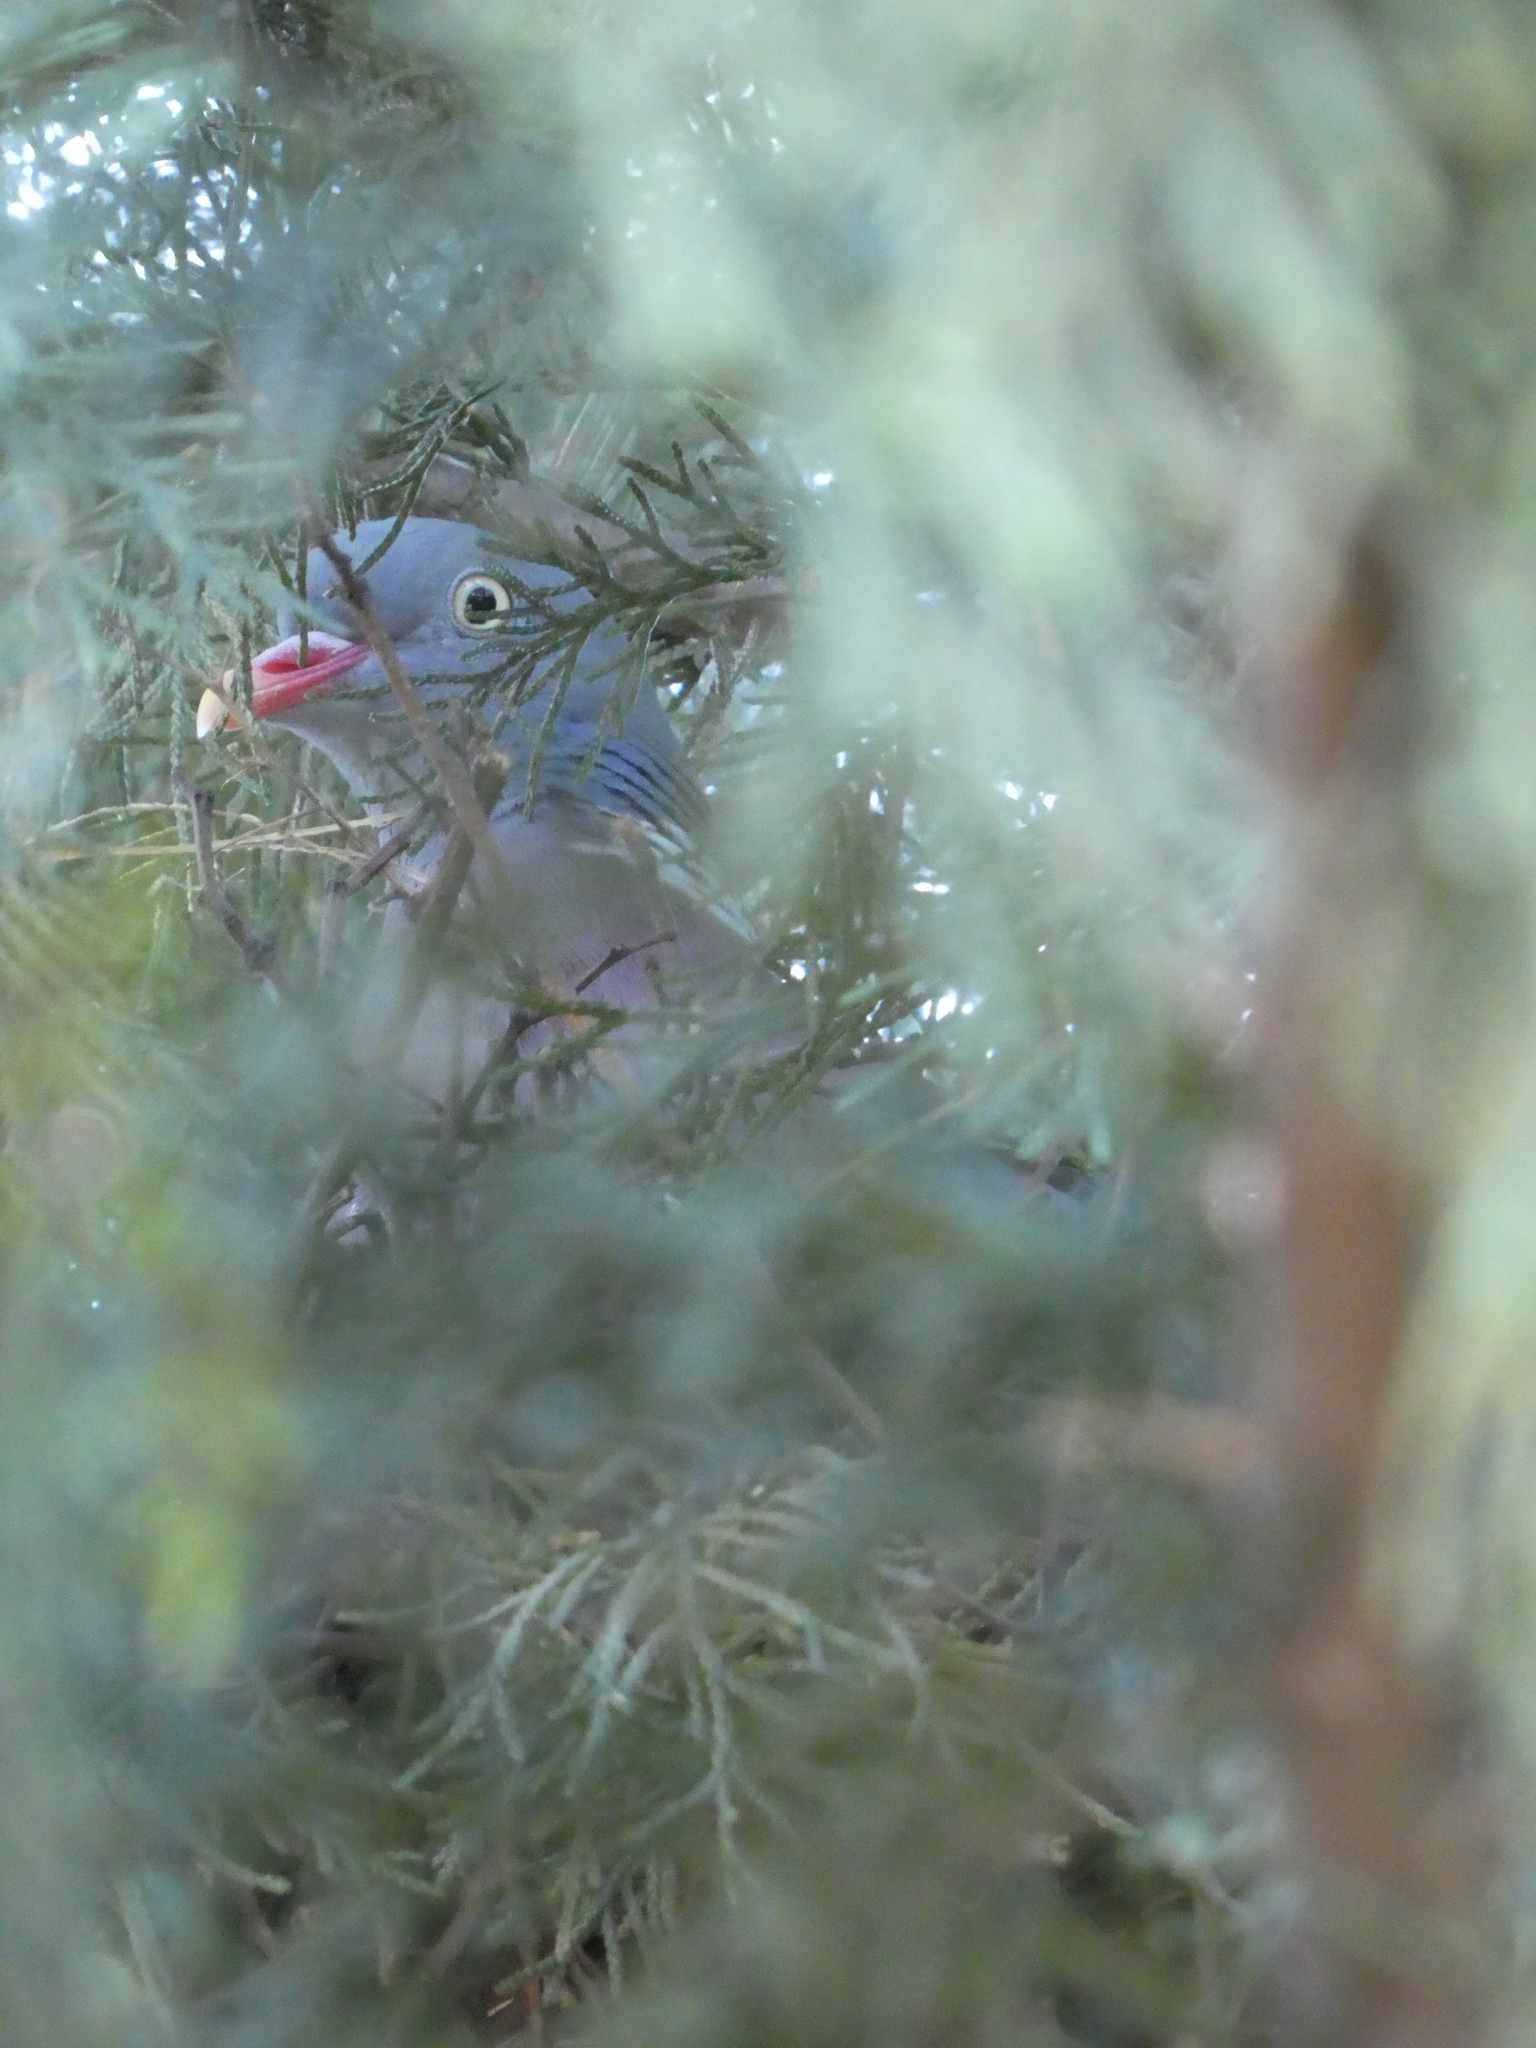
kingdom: Animalia
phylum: Chordata
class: Aves
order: Columbiformes
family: Columbidae
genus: Columba
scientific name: Columba palumbus
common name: Common wood pigeon
